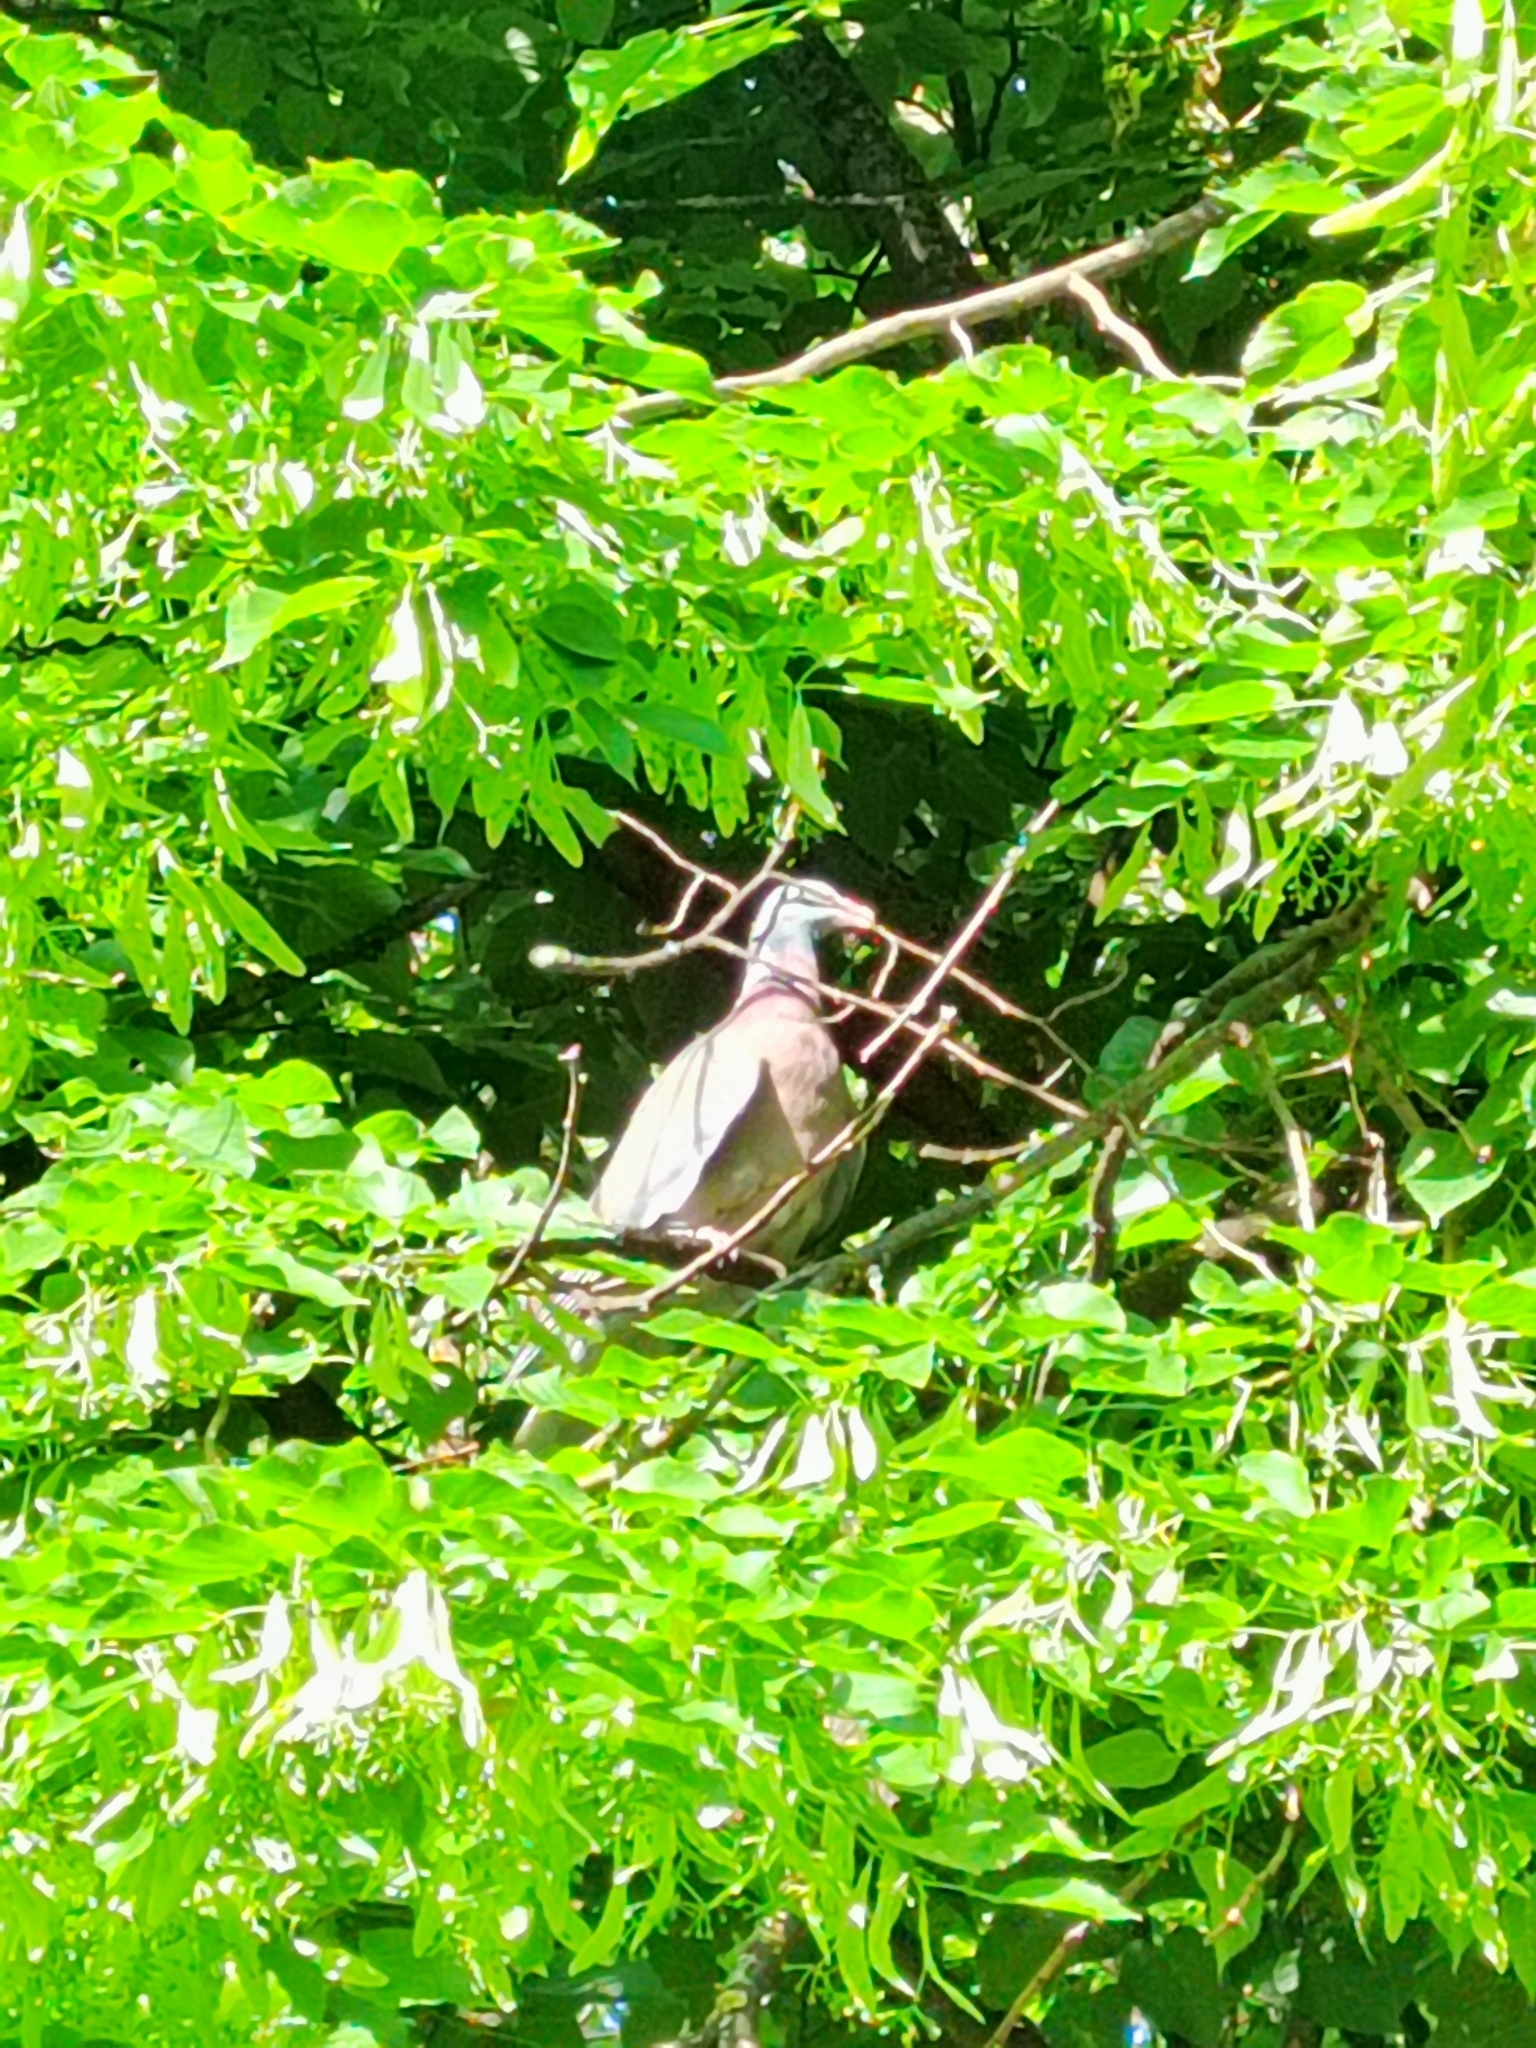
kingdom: Animalia
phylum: Chordata
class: Aves
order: Columbiformes
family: Columbidae
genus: Columba
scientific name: Columba palumbus
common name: Common wood pigeon
